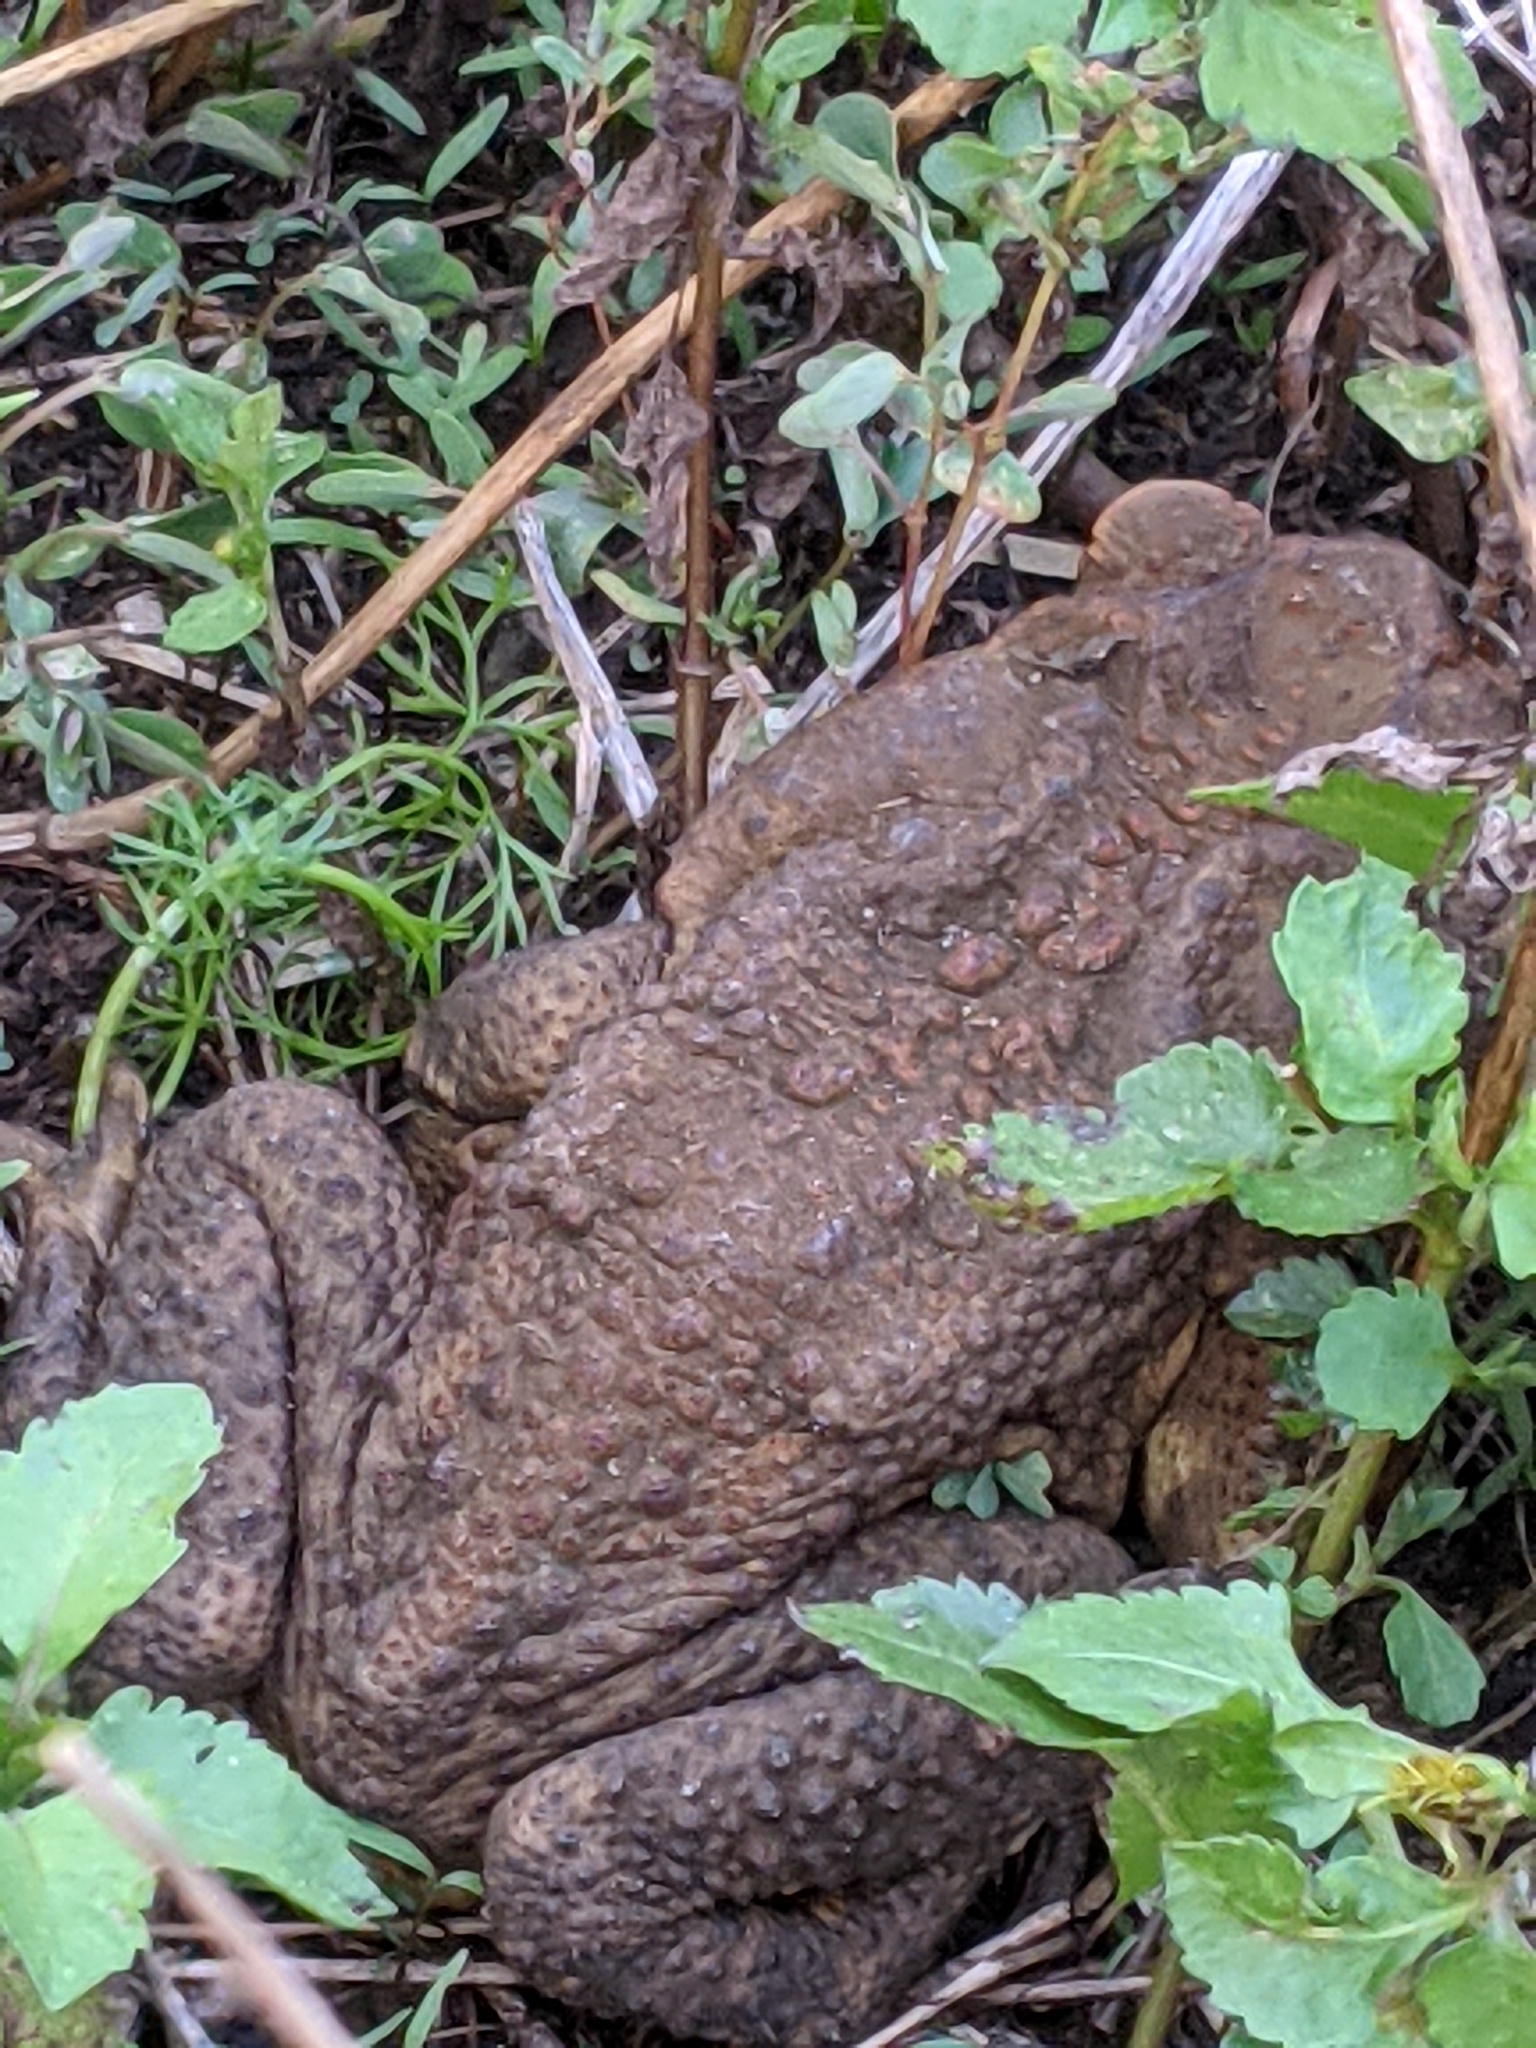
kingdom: Animalia
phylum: Chordata
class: Amphibia
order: Anura
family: Bufonidae
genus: Rhinella
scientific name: Rhinella marina
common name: Cane toad
